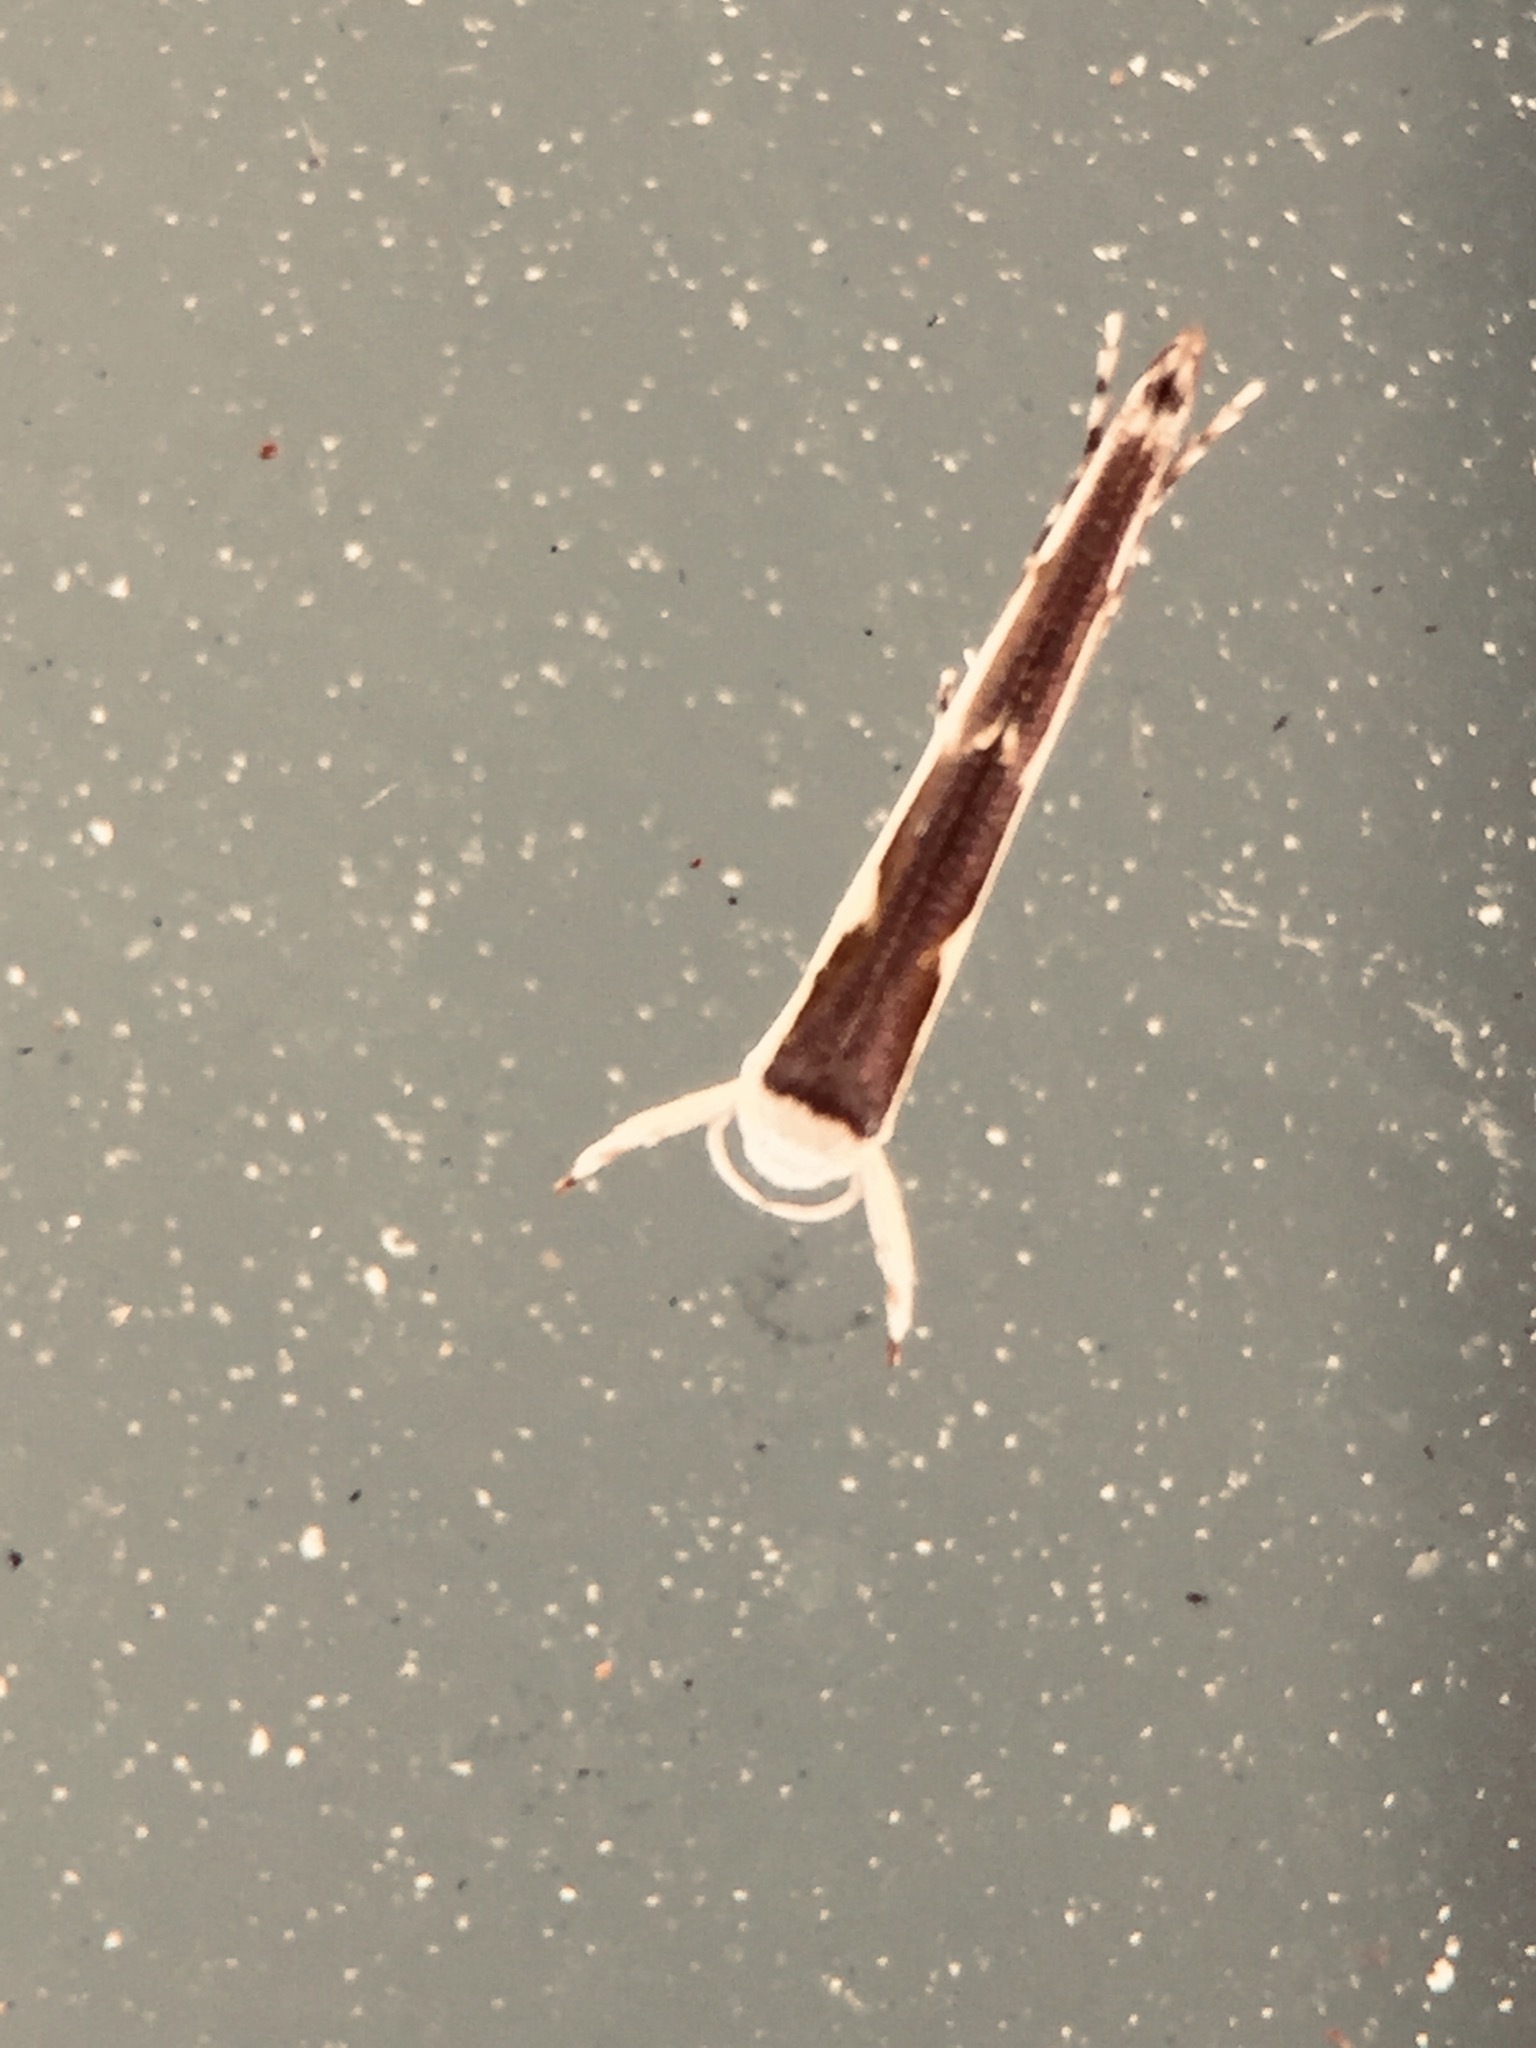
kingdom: Animalia
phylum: Arthropoda
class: Insecta
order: Lepidoptera
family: Roeslerstammiidae
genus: Vanicela
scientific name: Vanicela disjunctella
